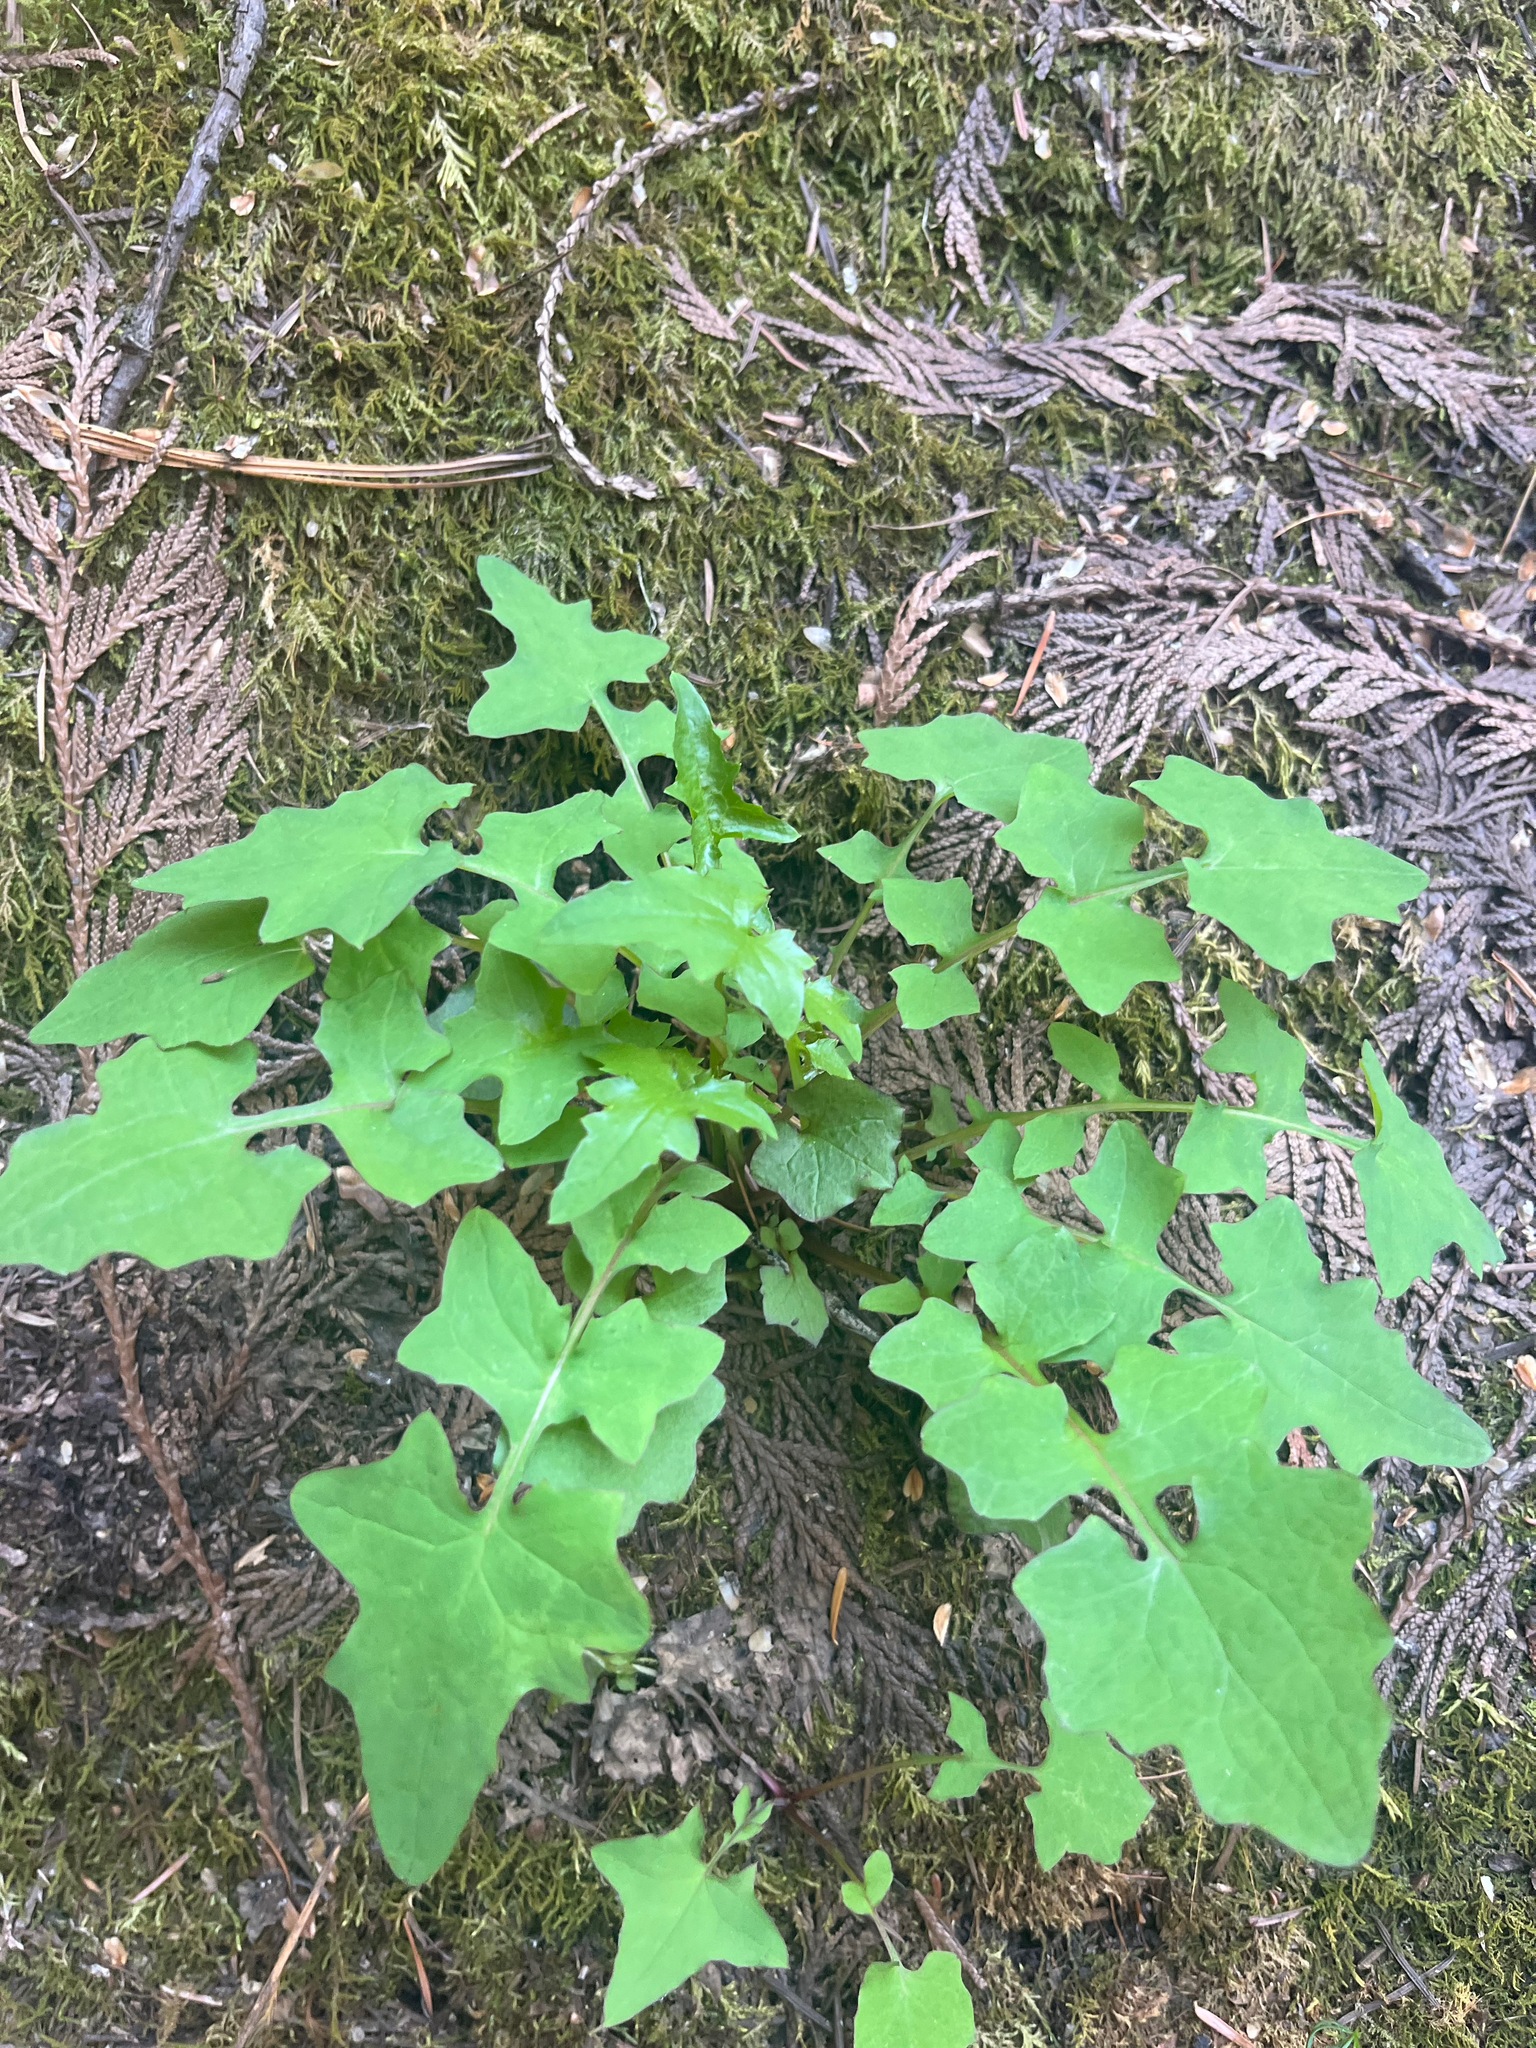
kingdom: Plantae
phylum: Tracheophyta
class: Magnoliopsida
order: Asterales
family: Asteraceae
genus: Mycelis
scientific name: Mycelis muralis
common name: Wall lettuce
